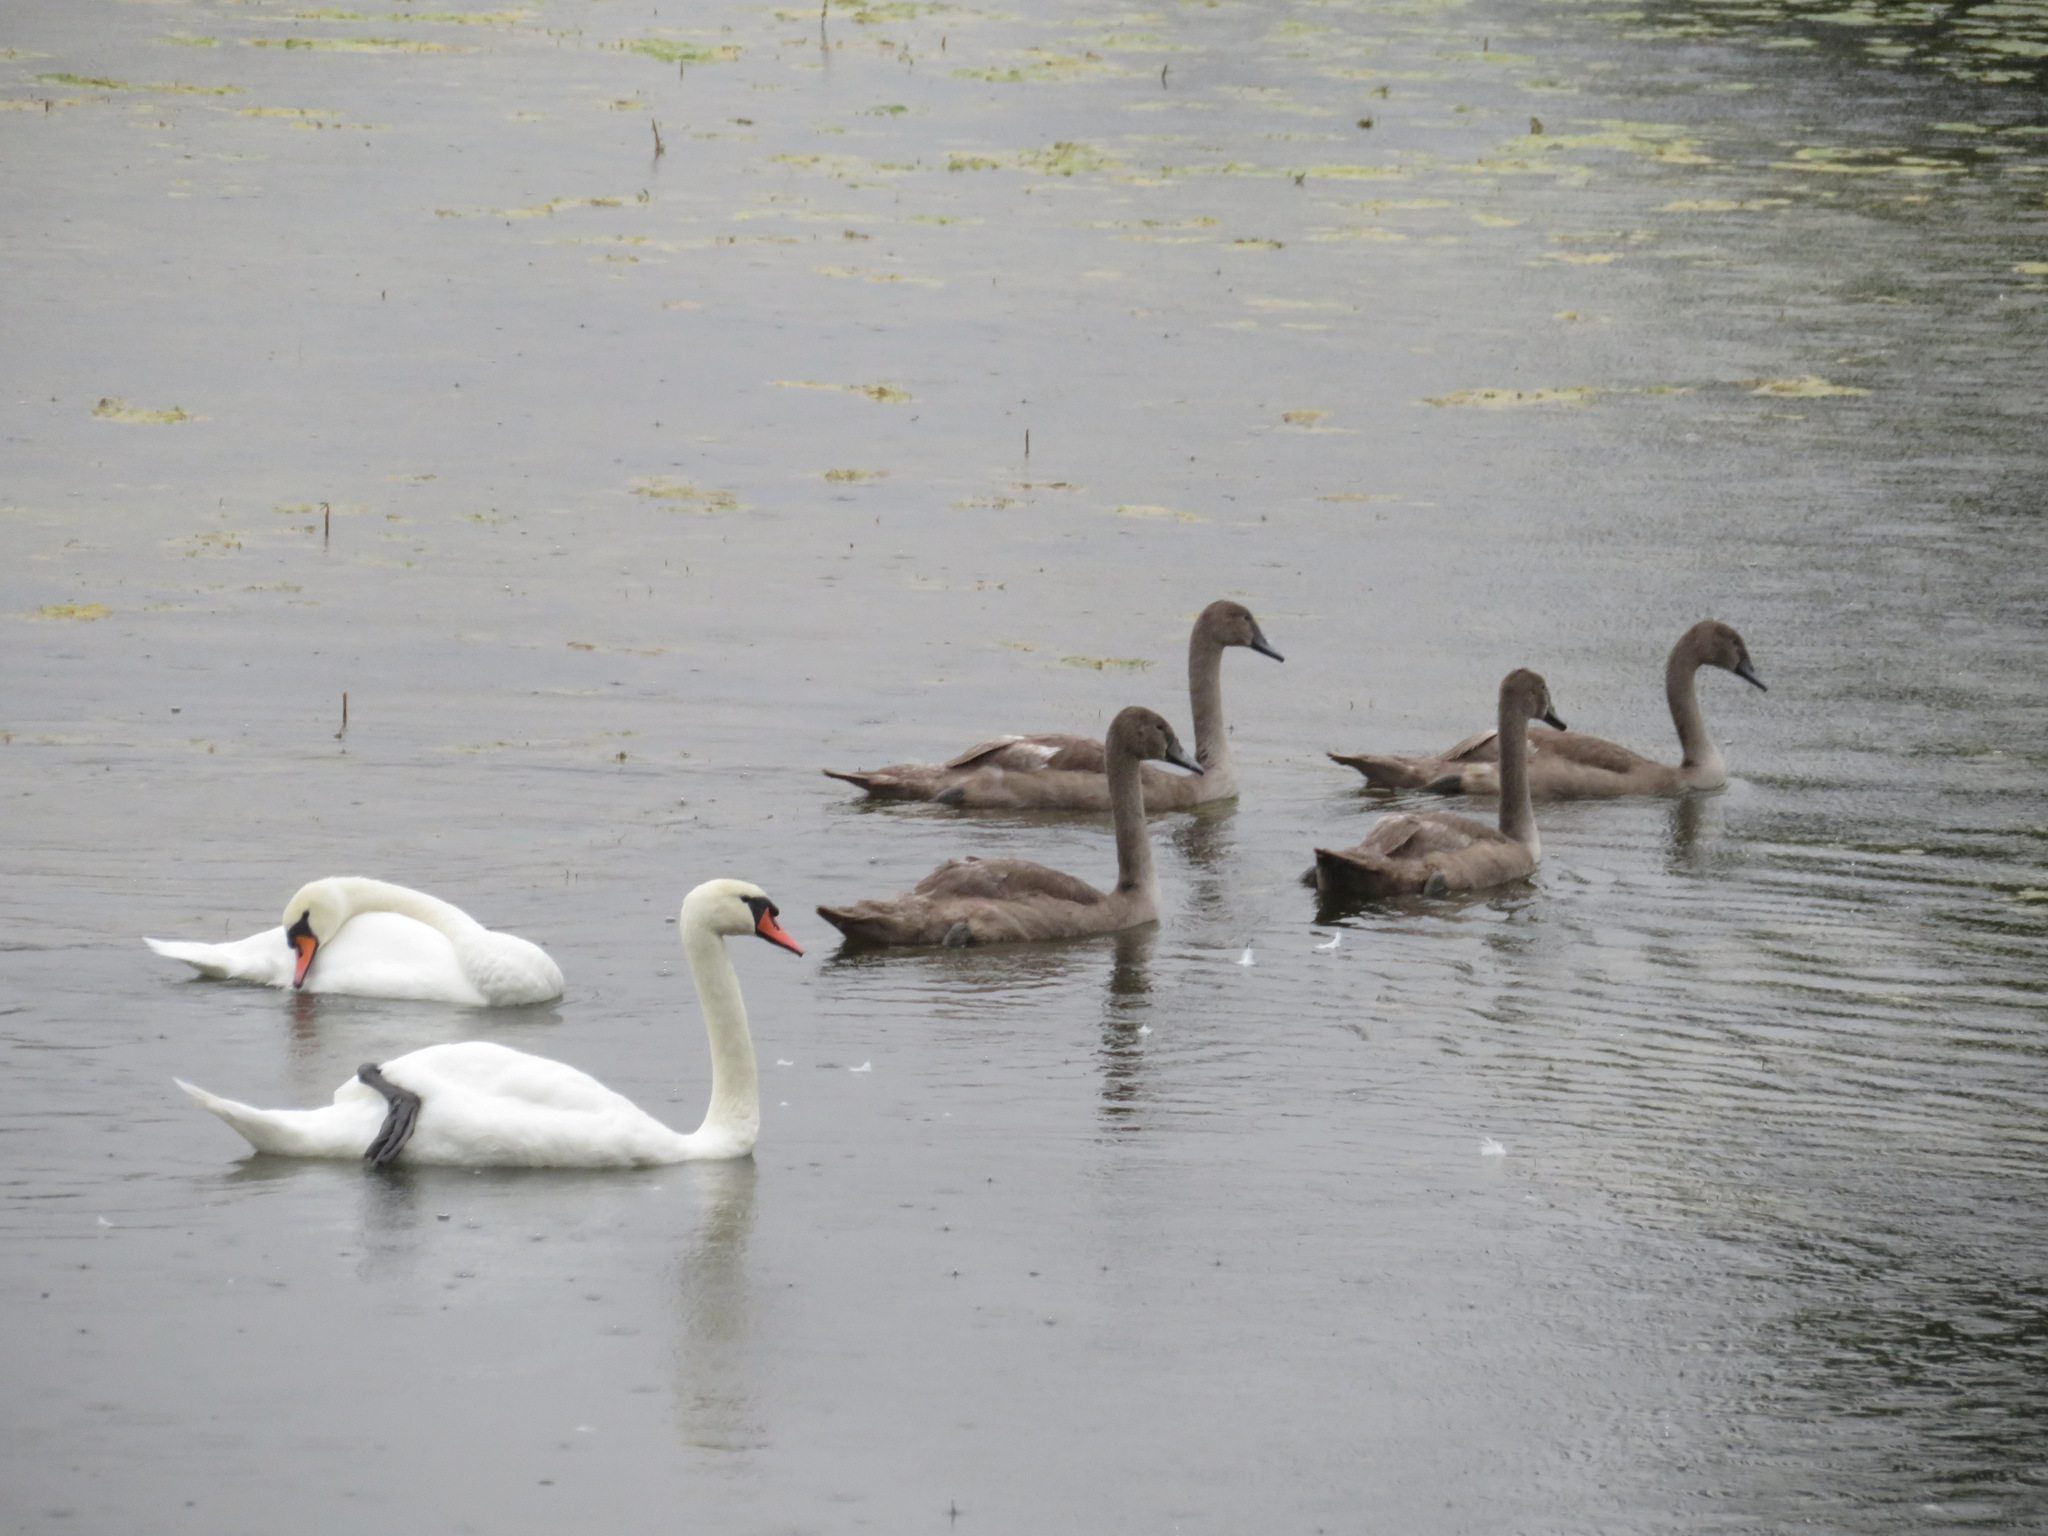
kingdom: Animalia
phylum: Chordata
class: Aves
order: Anseriformes
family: Anatidae
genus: Cygnus
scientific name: Cygnus olor
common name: Mute swan
